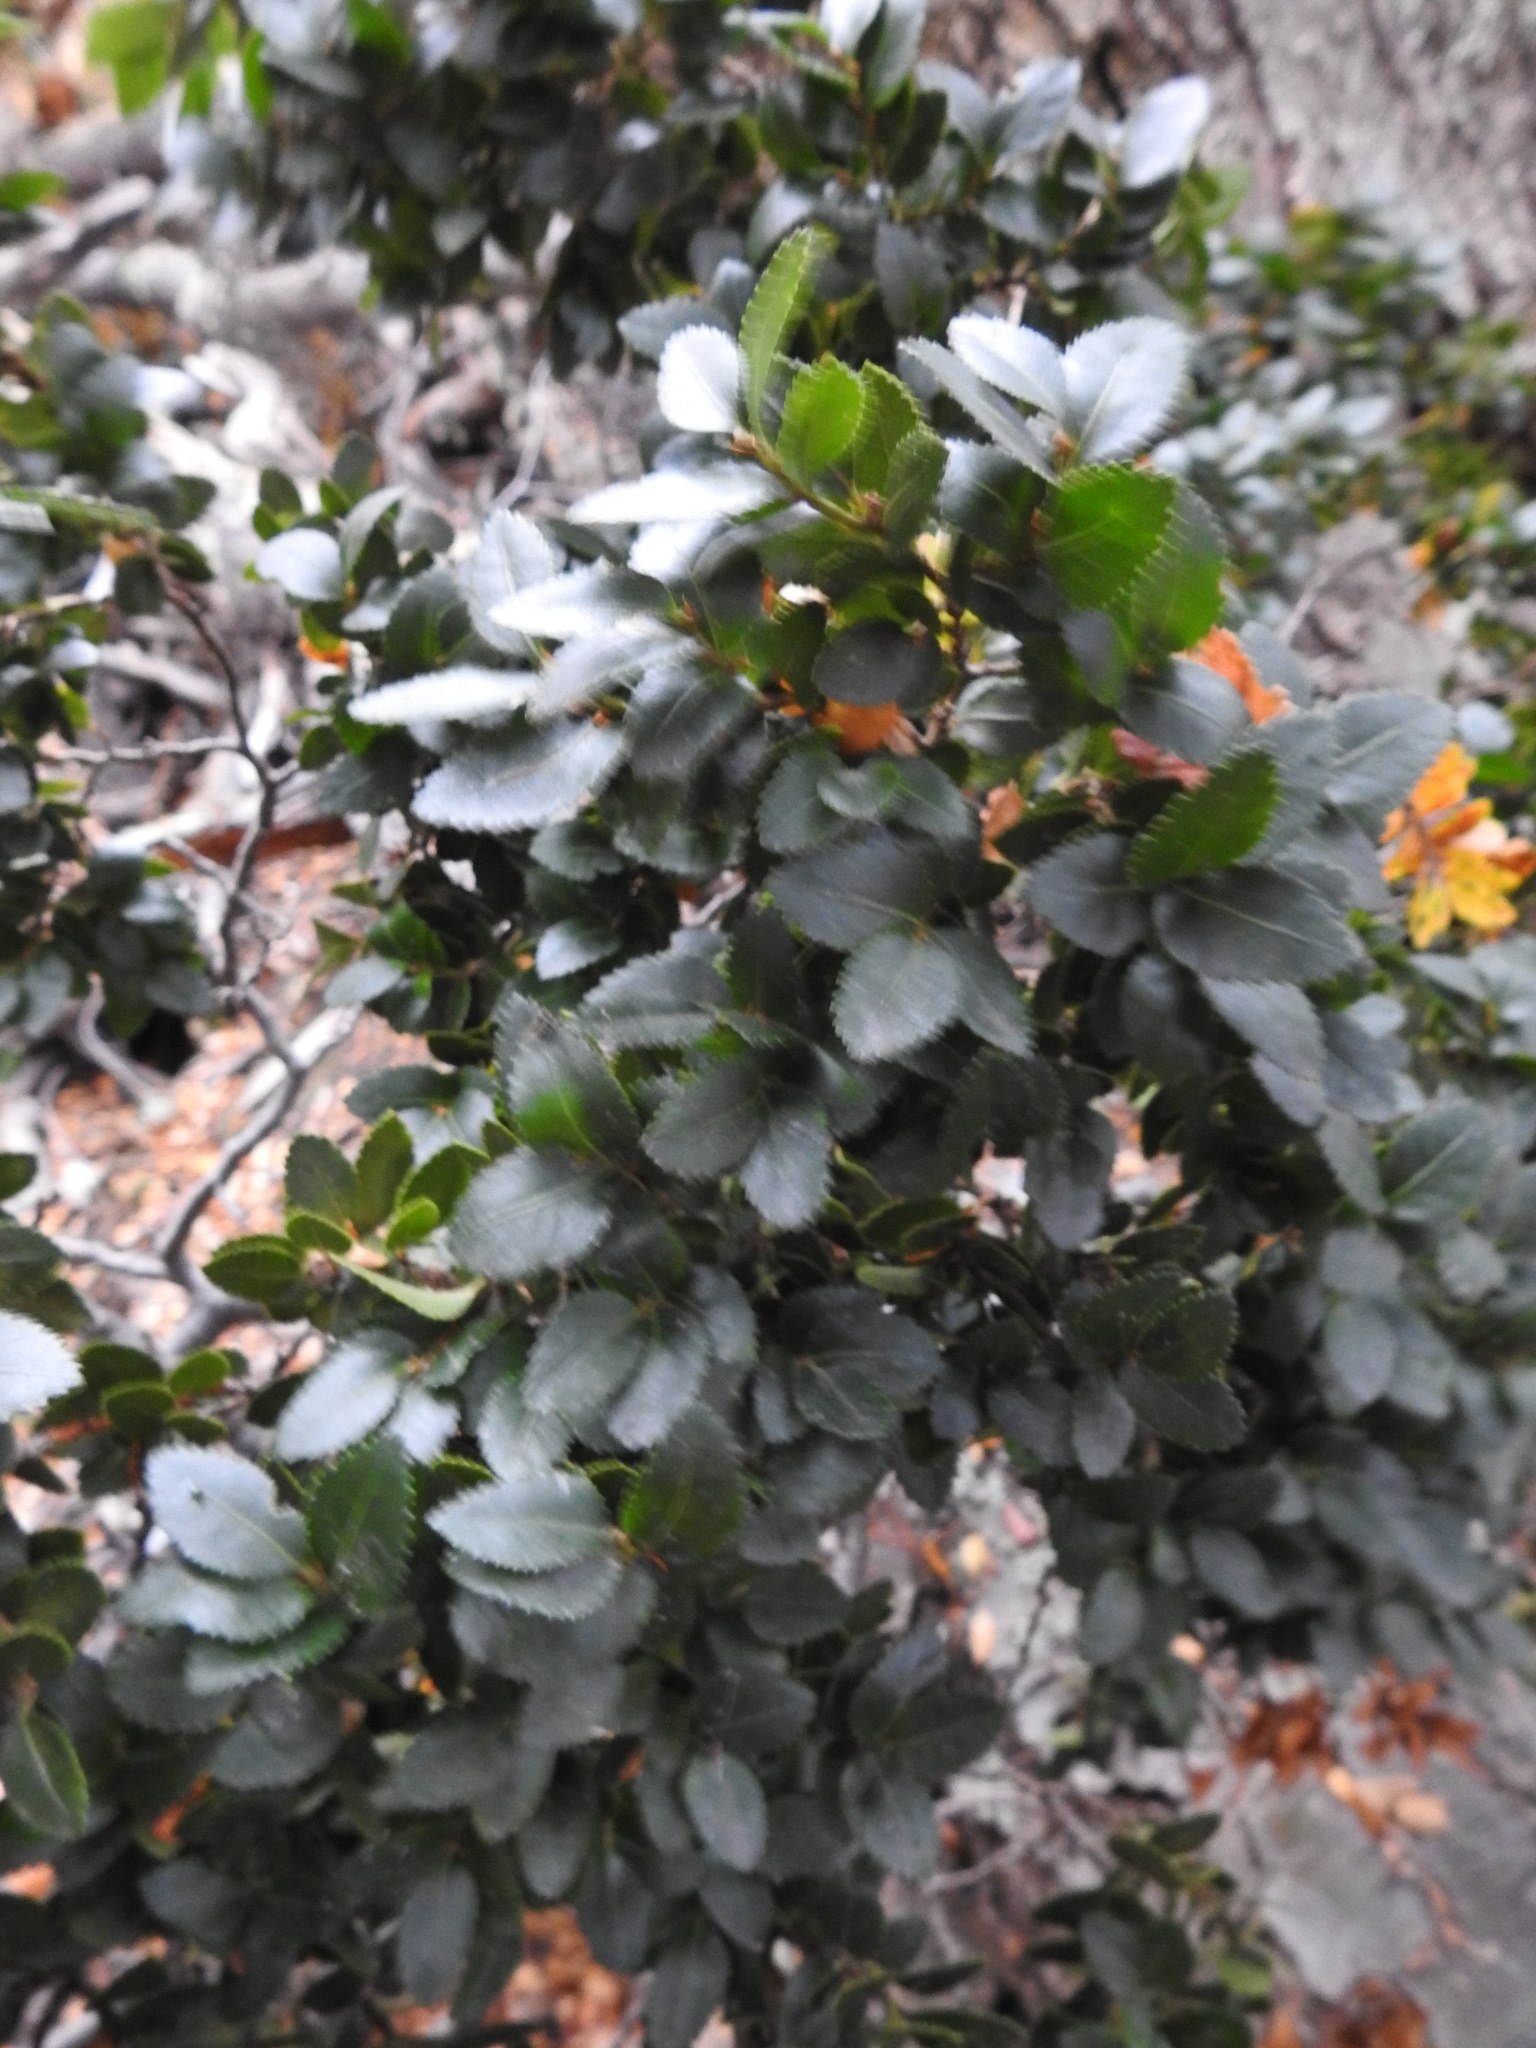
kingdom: Plantae
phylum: Tracheophyta
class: Magnoliopsida
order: Fagales
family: Nothofagaceae
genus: Nothofagus
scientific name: Nothofagus betuloides
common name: Magellan's beech
